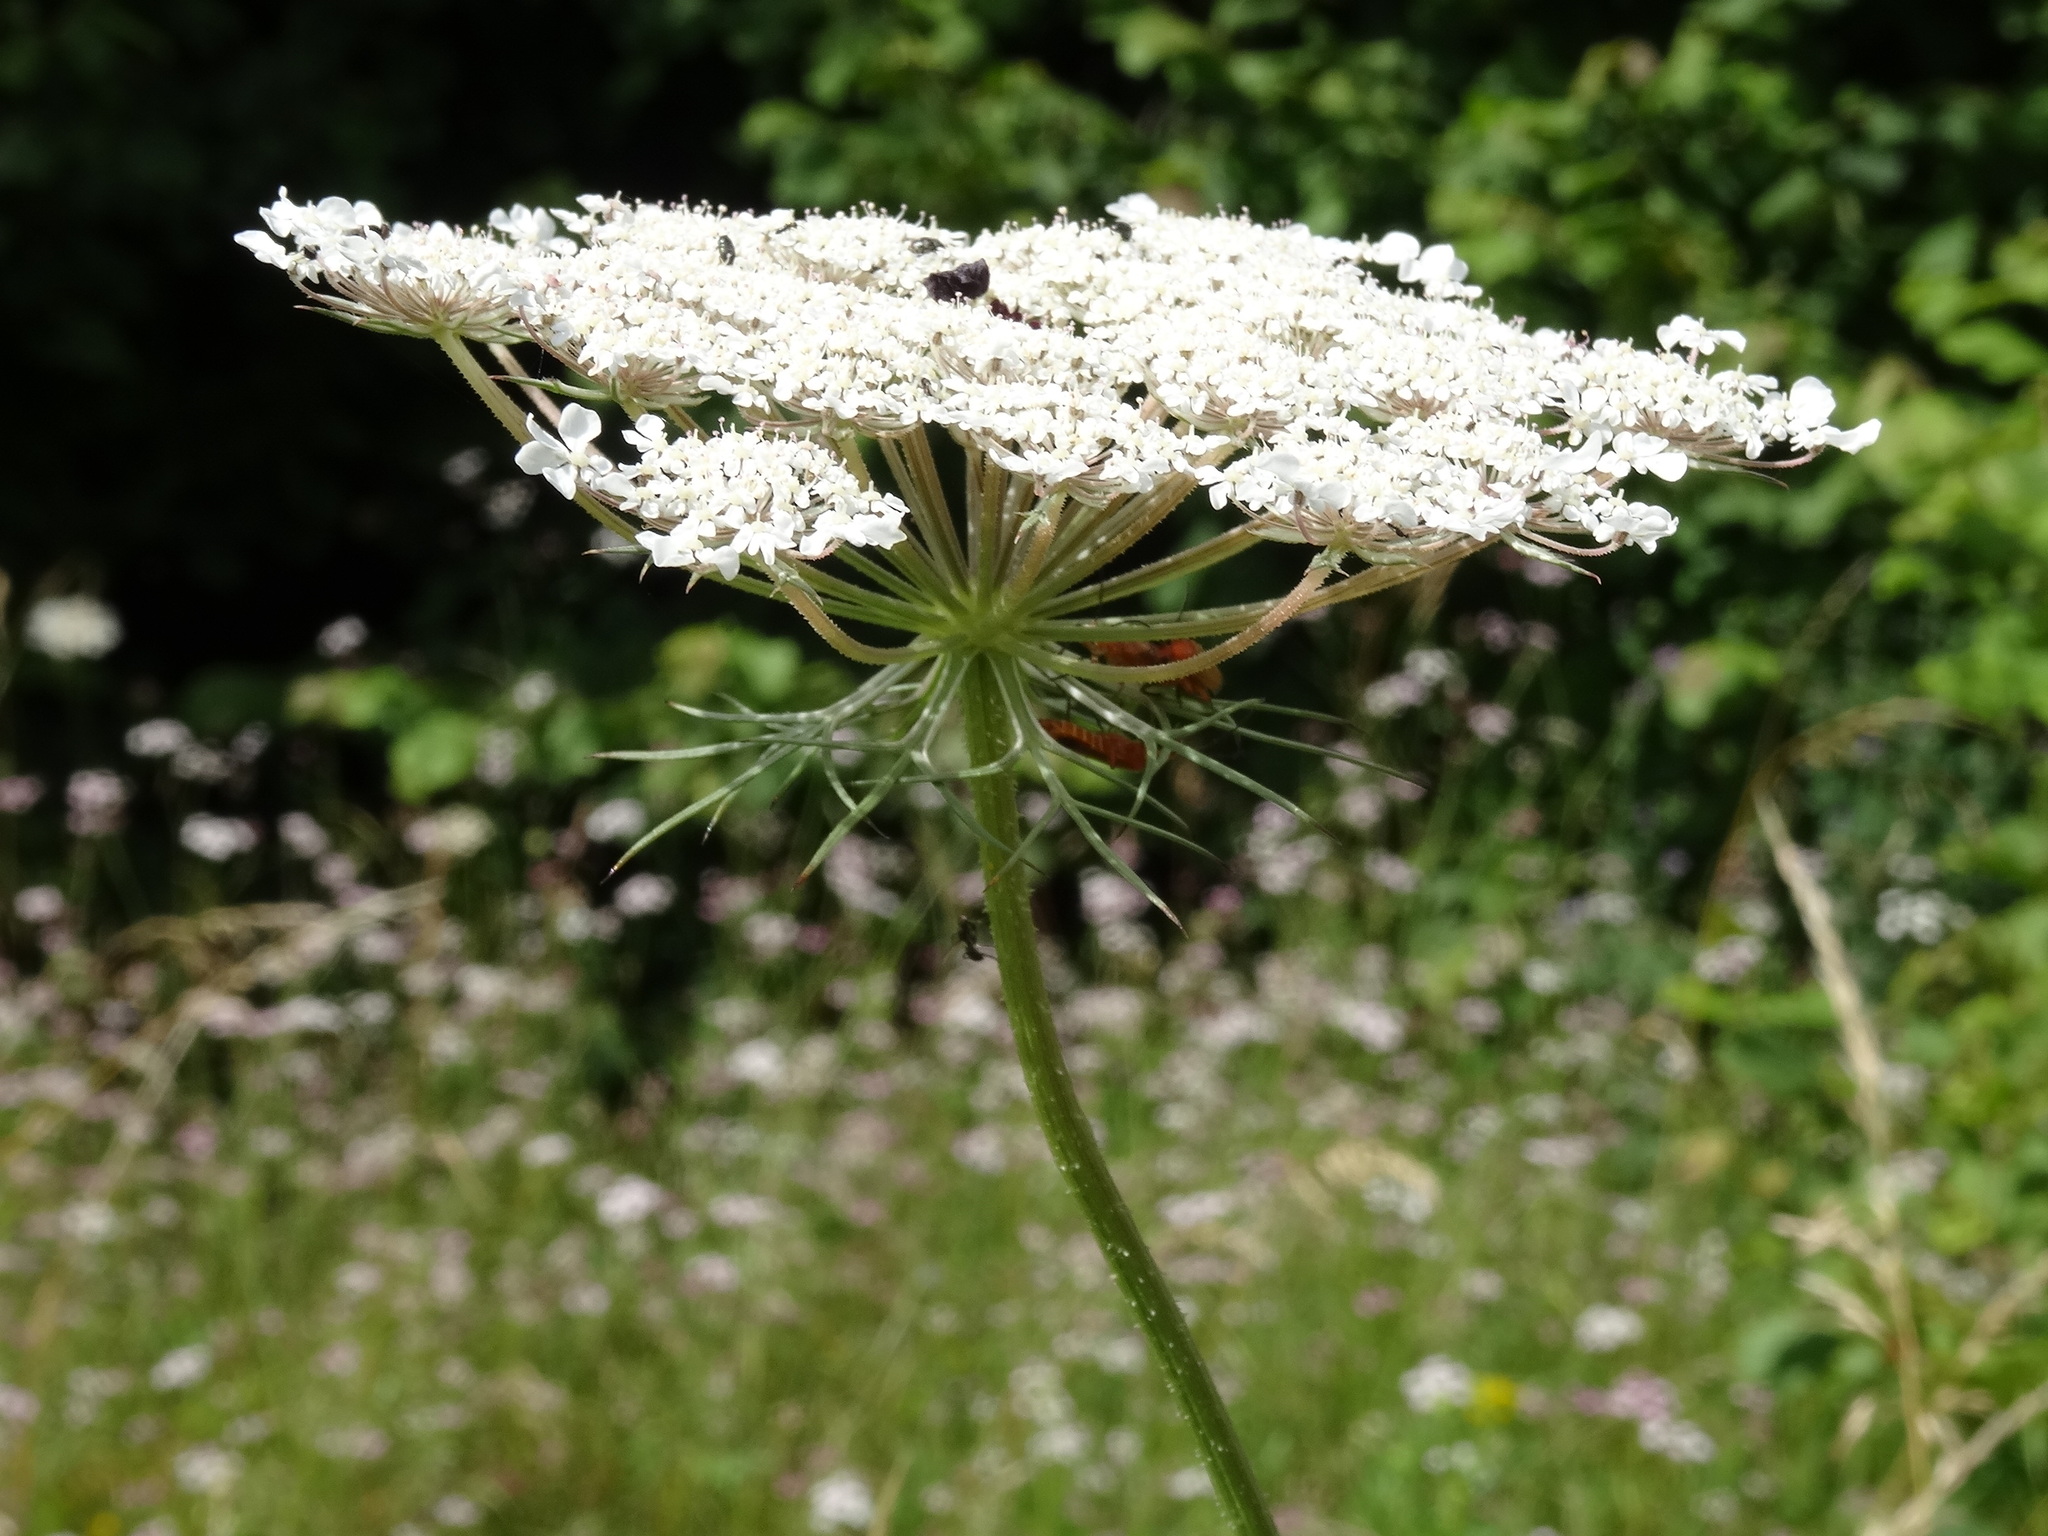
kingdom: Plantae
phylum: Tracheophyta
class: Magnoliopsida
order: Apiales
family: Apiaceae
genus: Daucus
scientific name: Daucus carota
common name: Wild carrot
